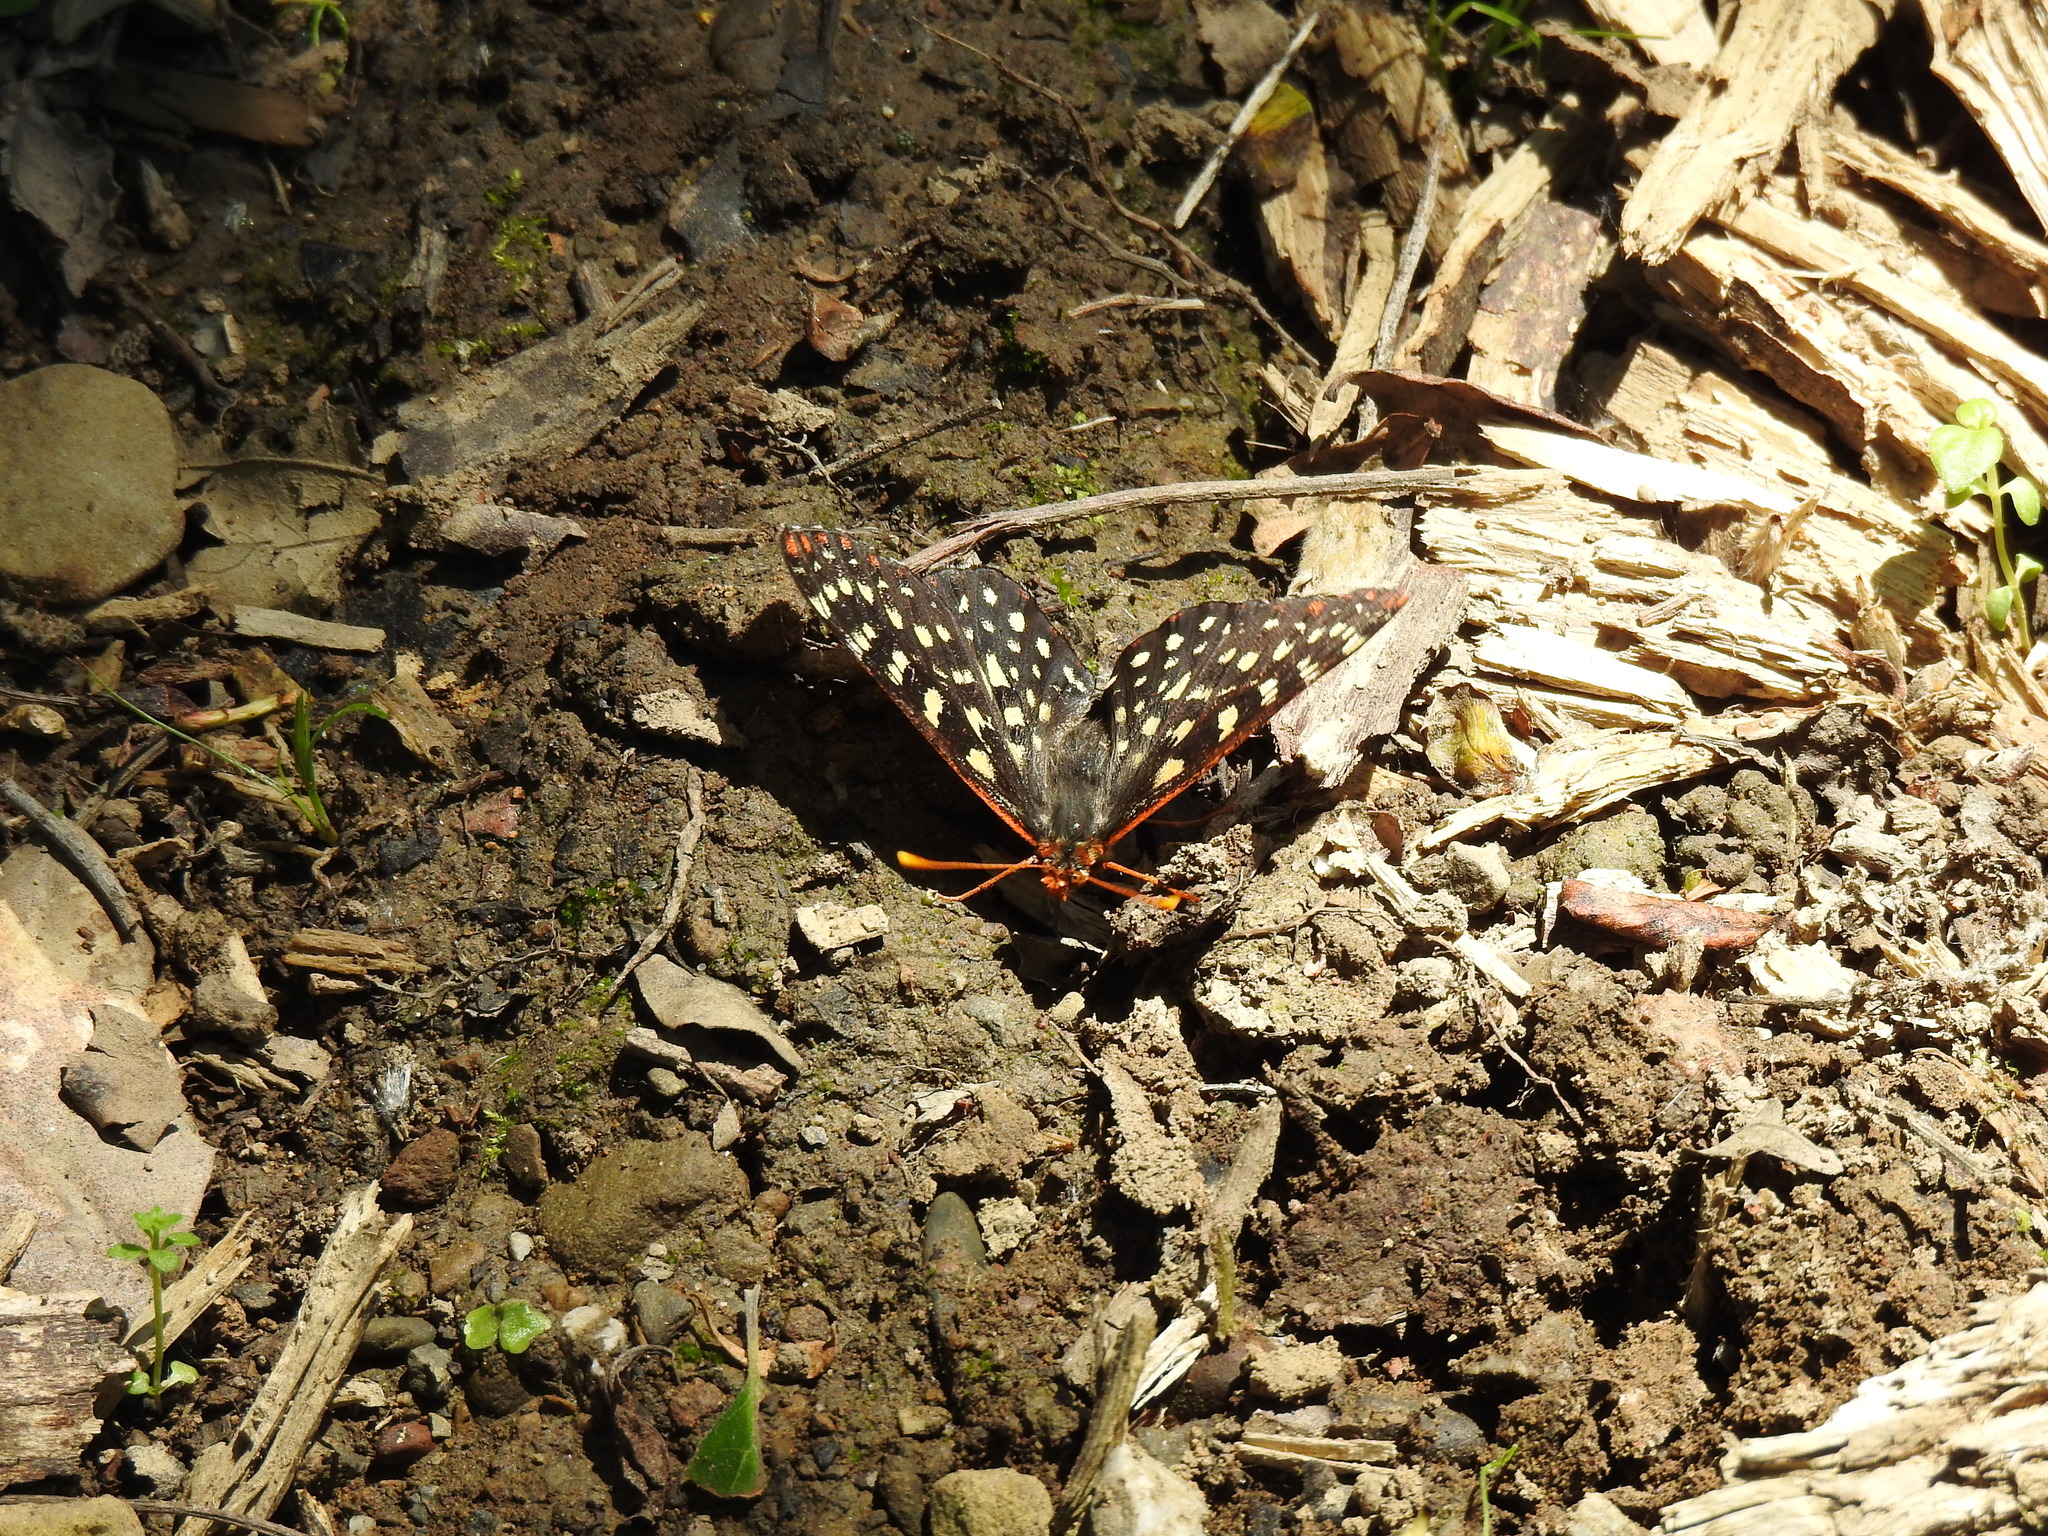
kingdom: Animalia
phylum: Arthropoda
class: Insecta
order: Lepidoptera
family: Nymphalidae
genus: Occidryas
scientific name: Occidryas chalcedona
